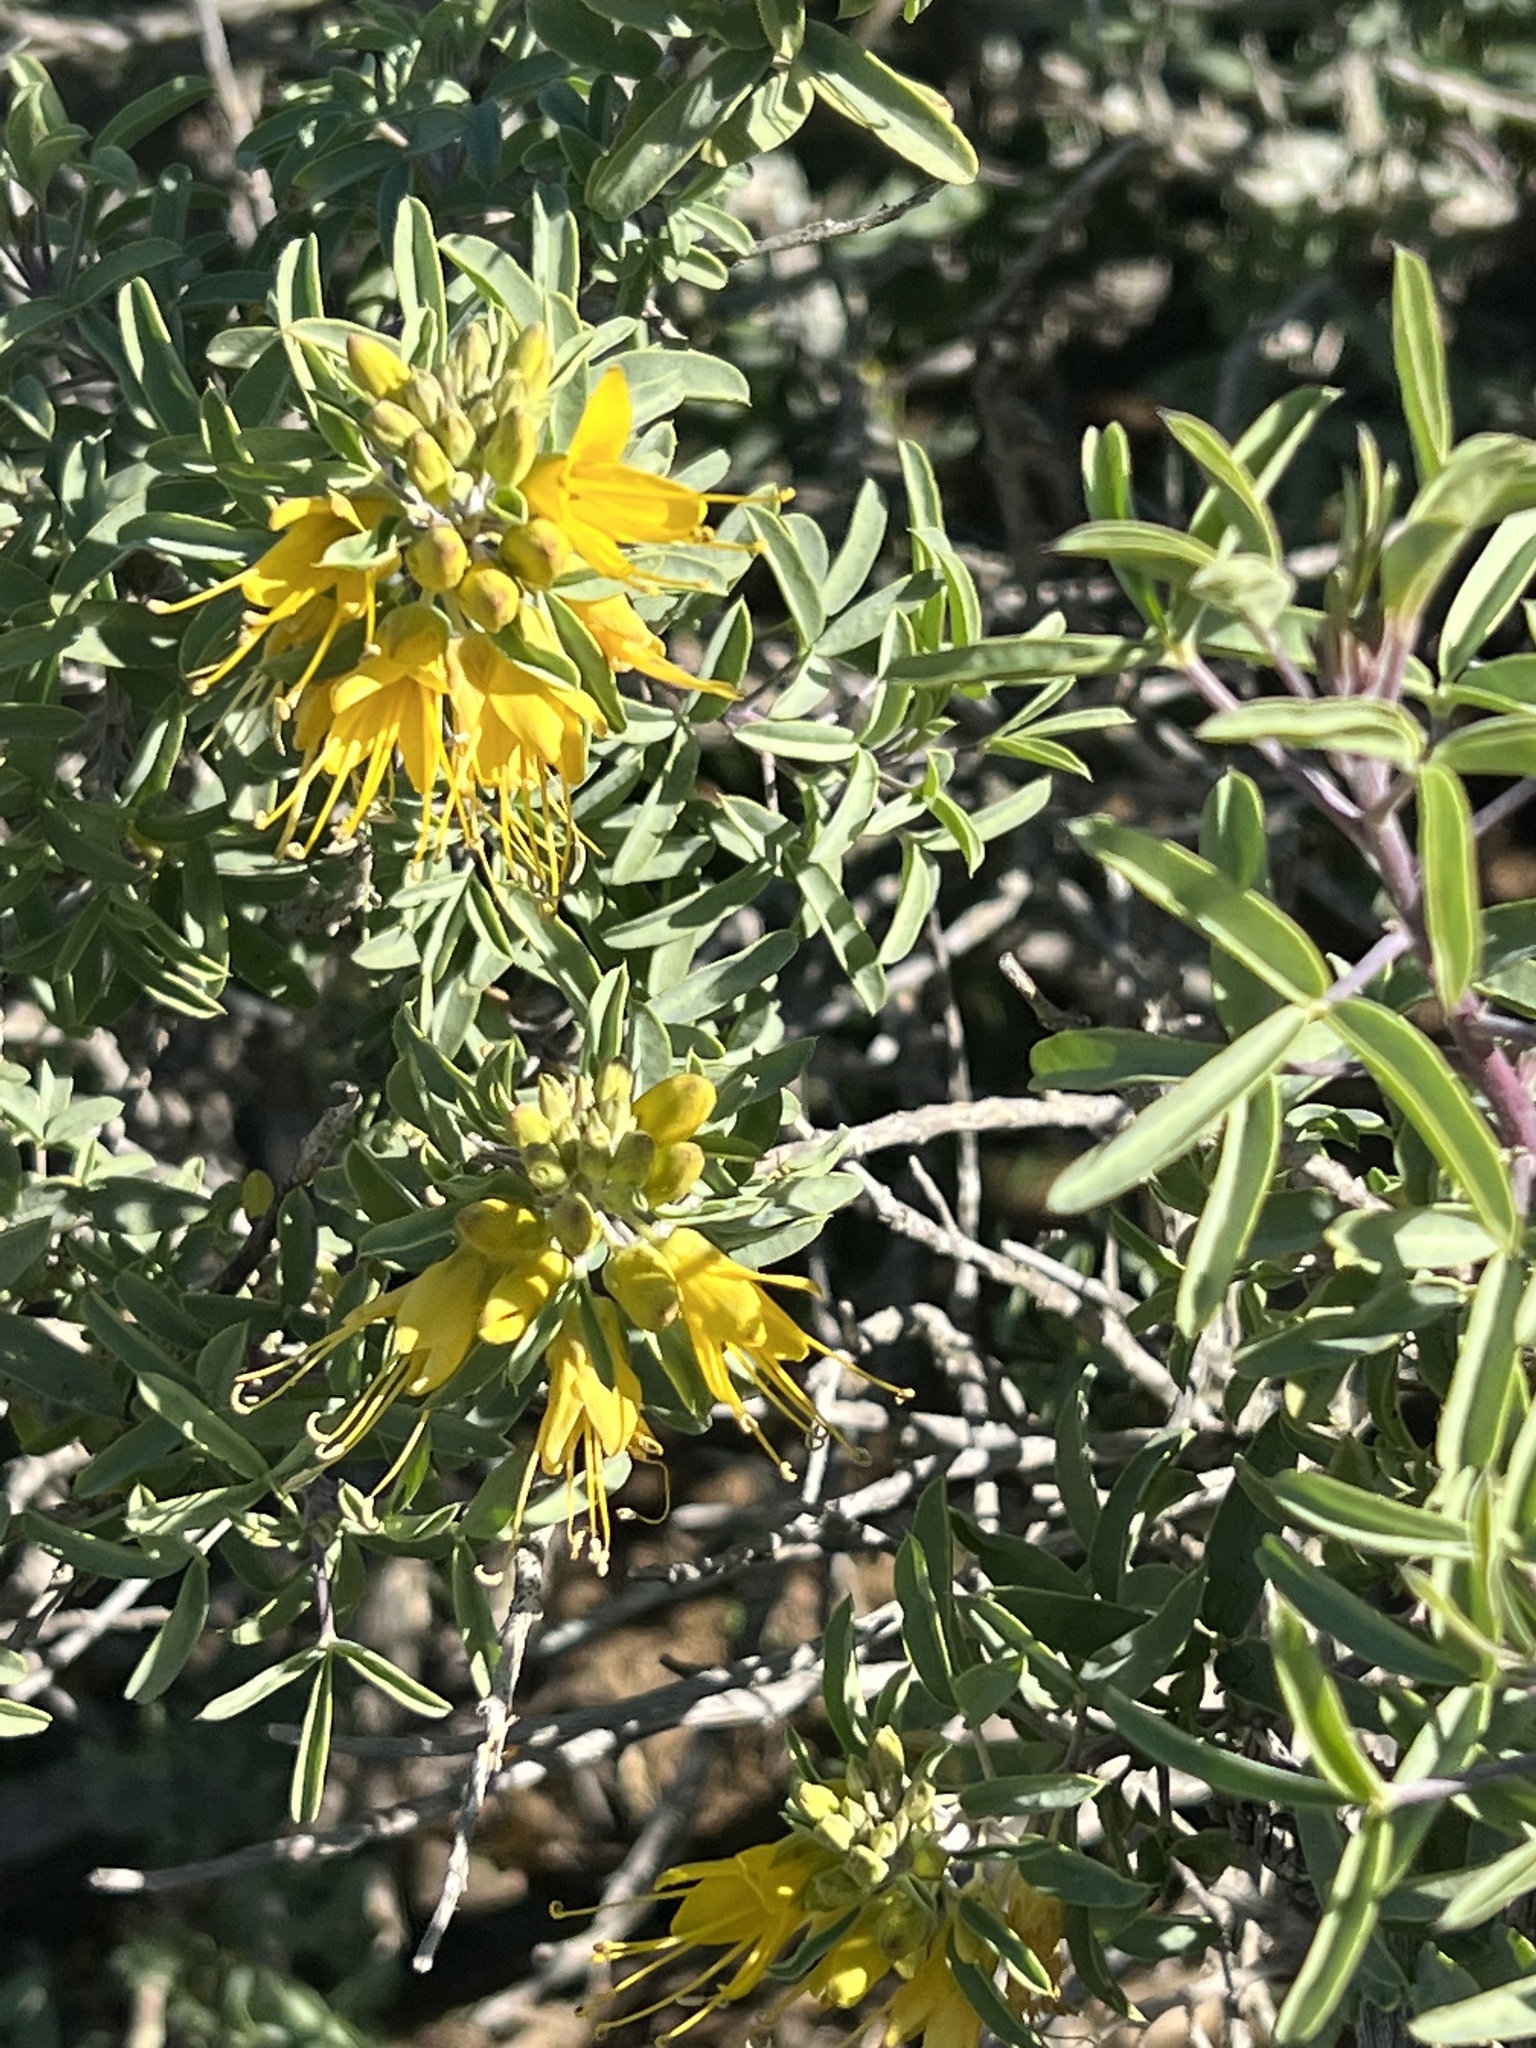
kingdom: Plantae
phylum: Tracheophyta
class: Magnoliopsida
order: Brassicales
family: Cleomaceae
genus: Cleomella
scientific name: Cleomella arborea
